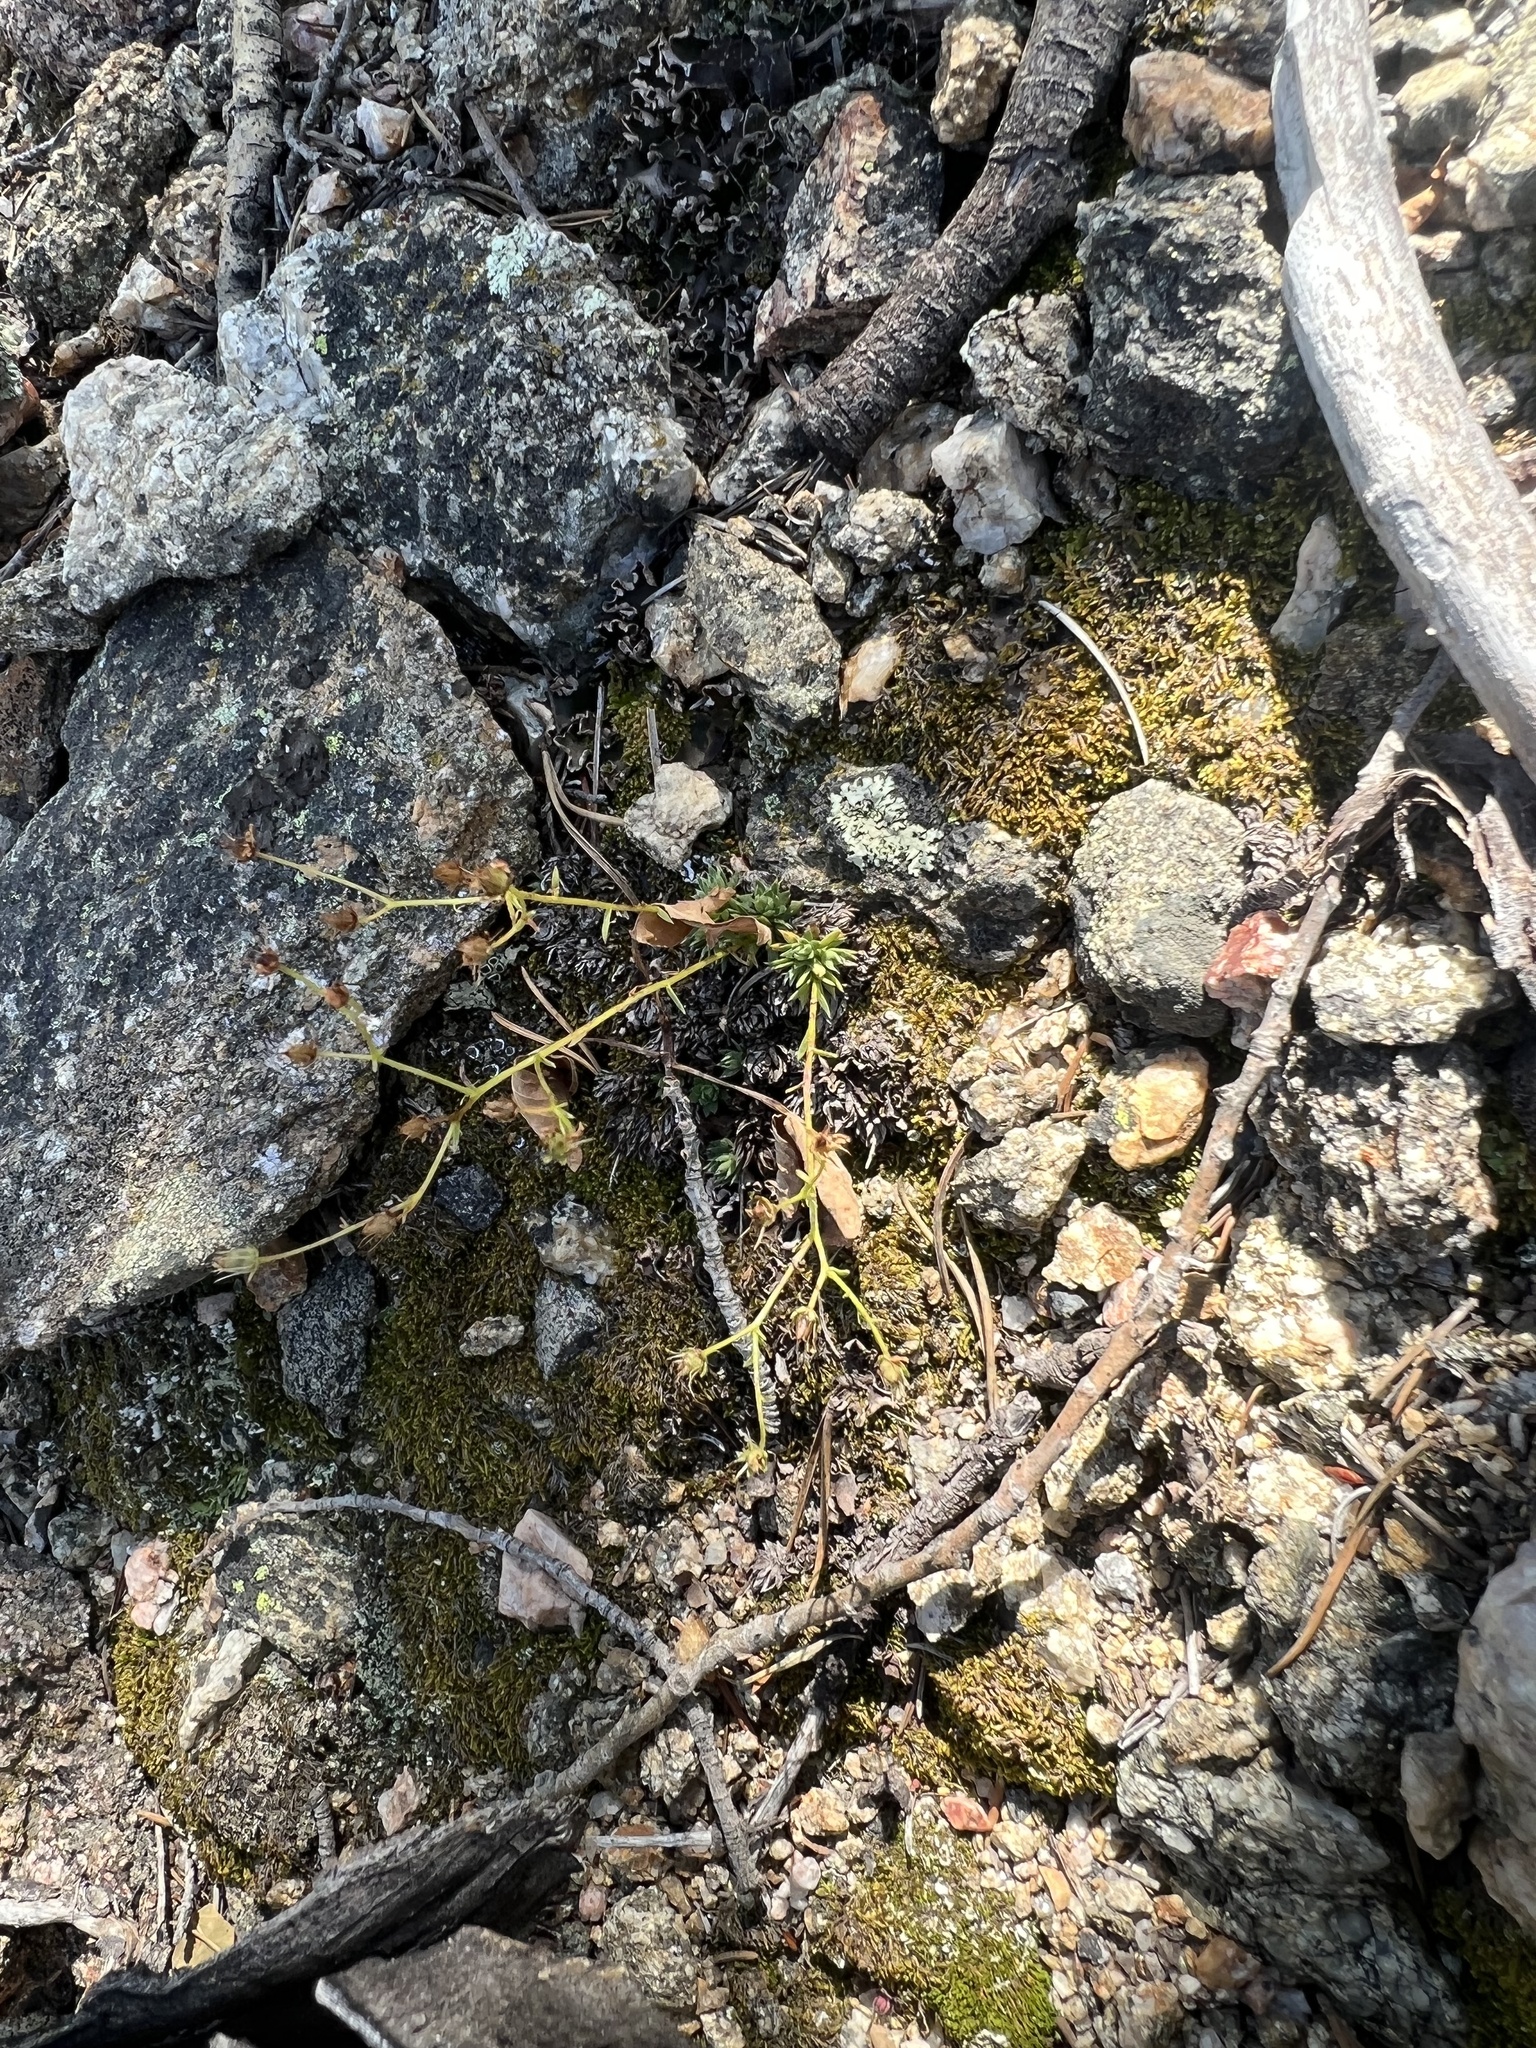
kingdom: Plantae
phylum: Tracheophyta
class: Magnoliopsida
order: Saxifragales
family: Saxifragaceae
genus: Saxifraga
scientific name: Saxifraga bronchialis
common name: Matted saxifrage
